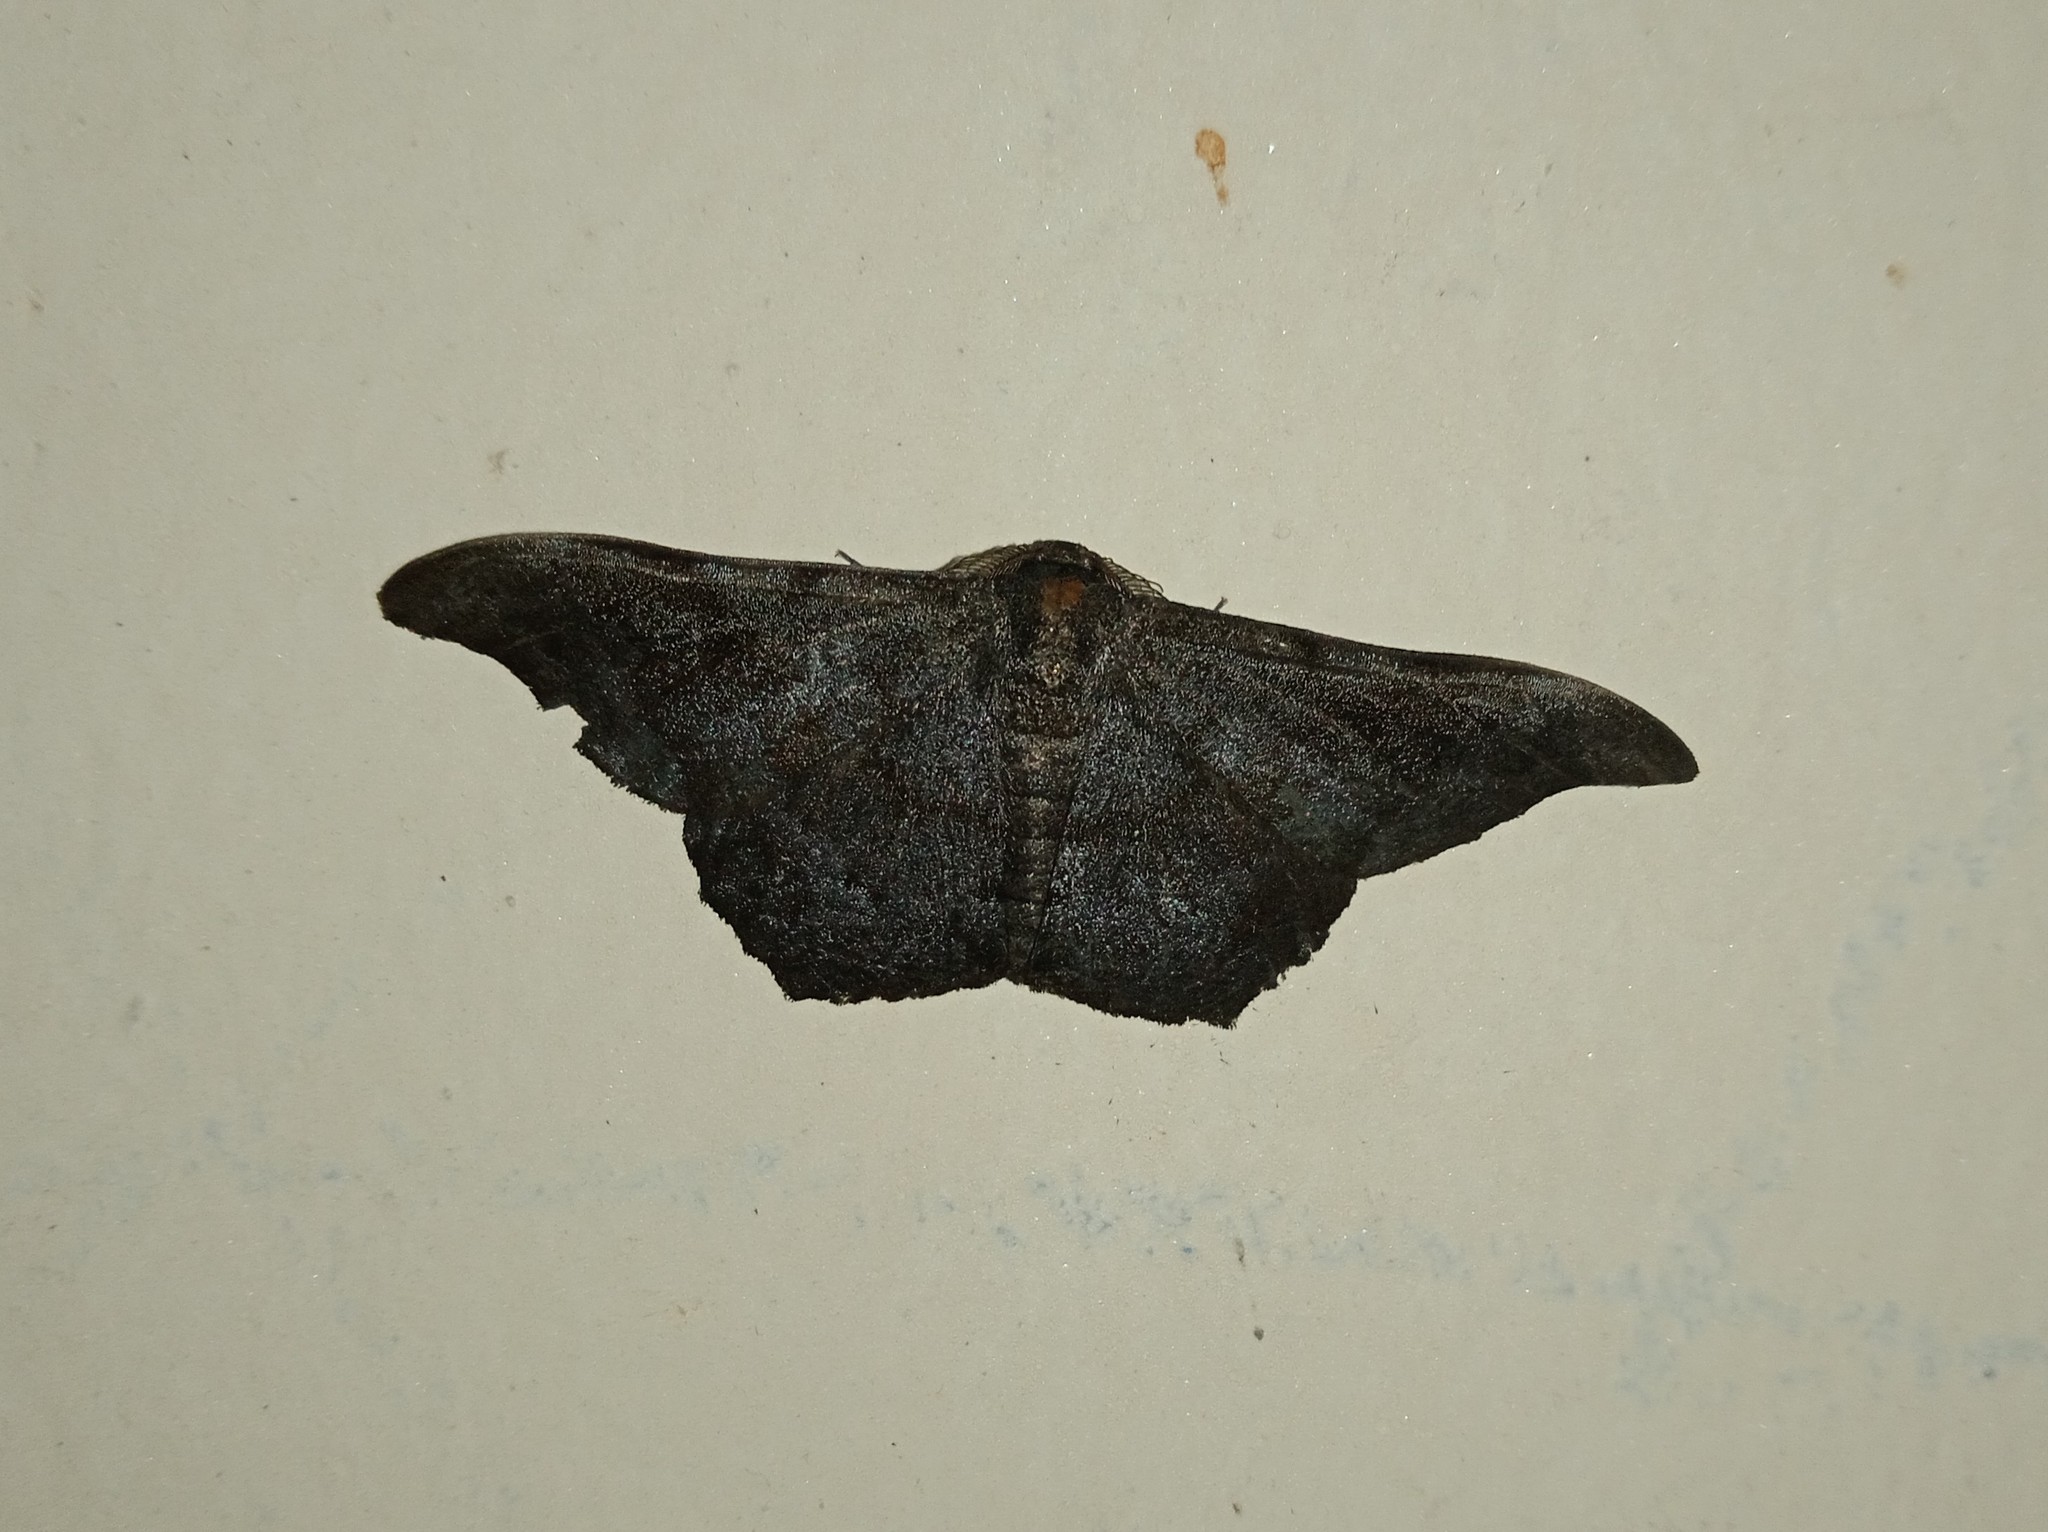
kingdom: Animalia
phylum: Arthropoda
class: Insecta
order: Lepidoptera
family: Geometridae
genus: Hyposidra
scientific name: Hyposidra talaca
